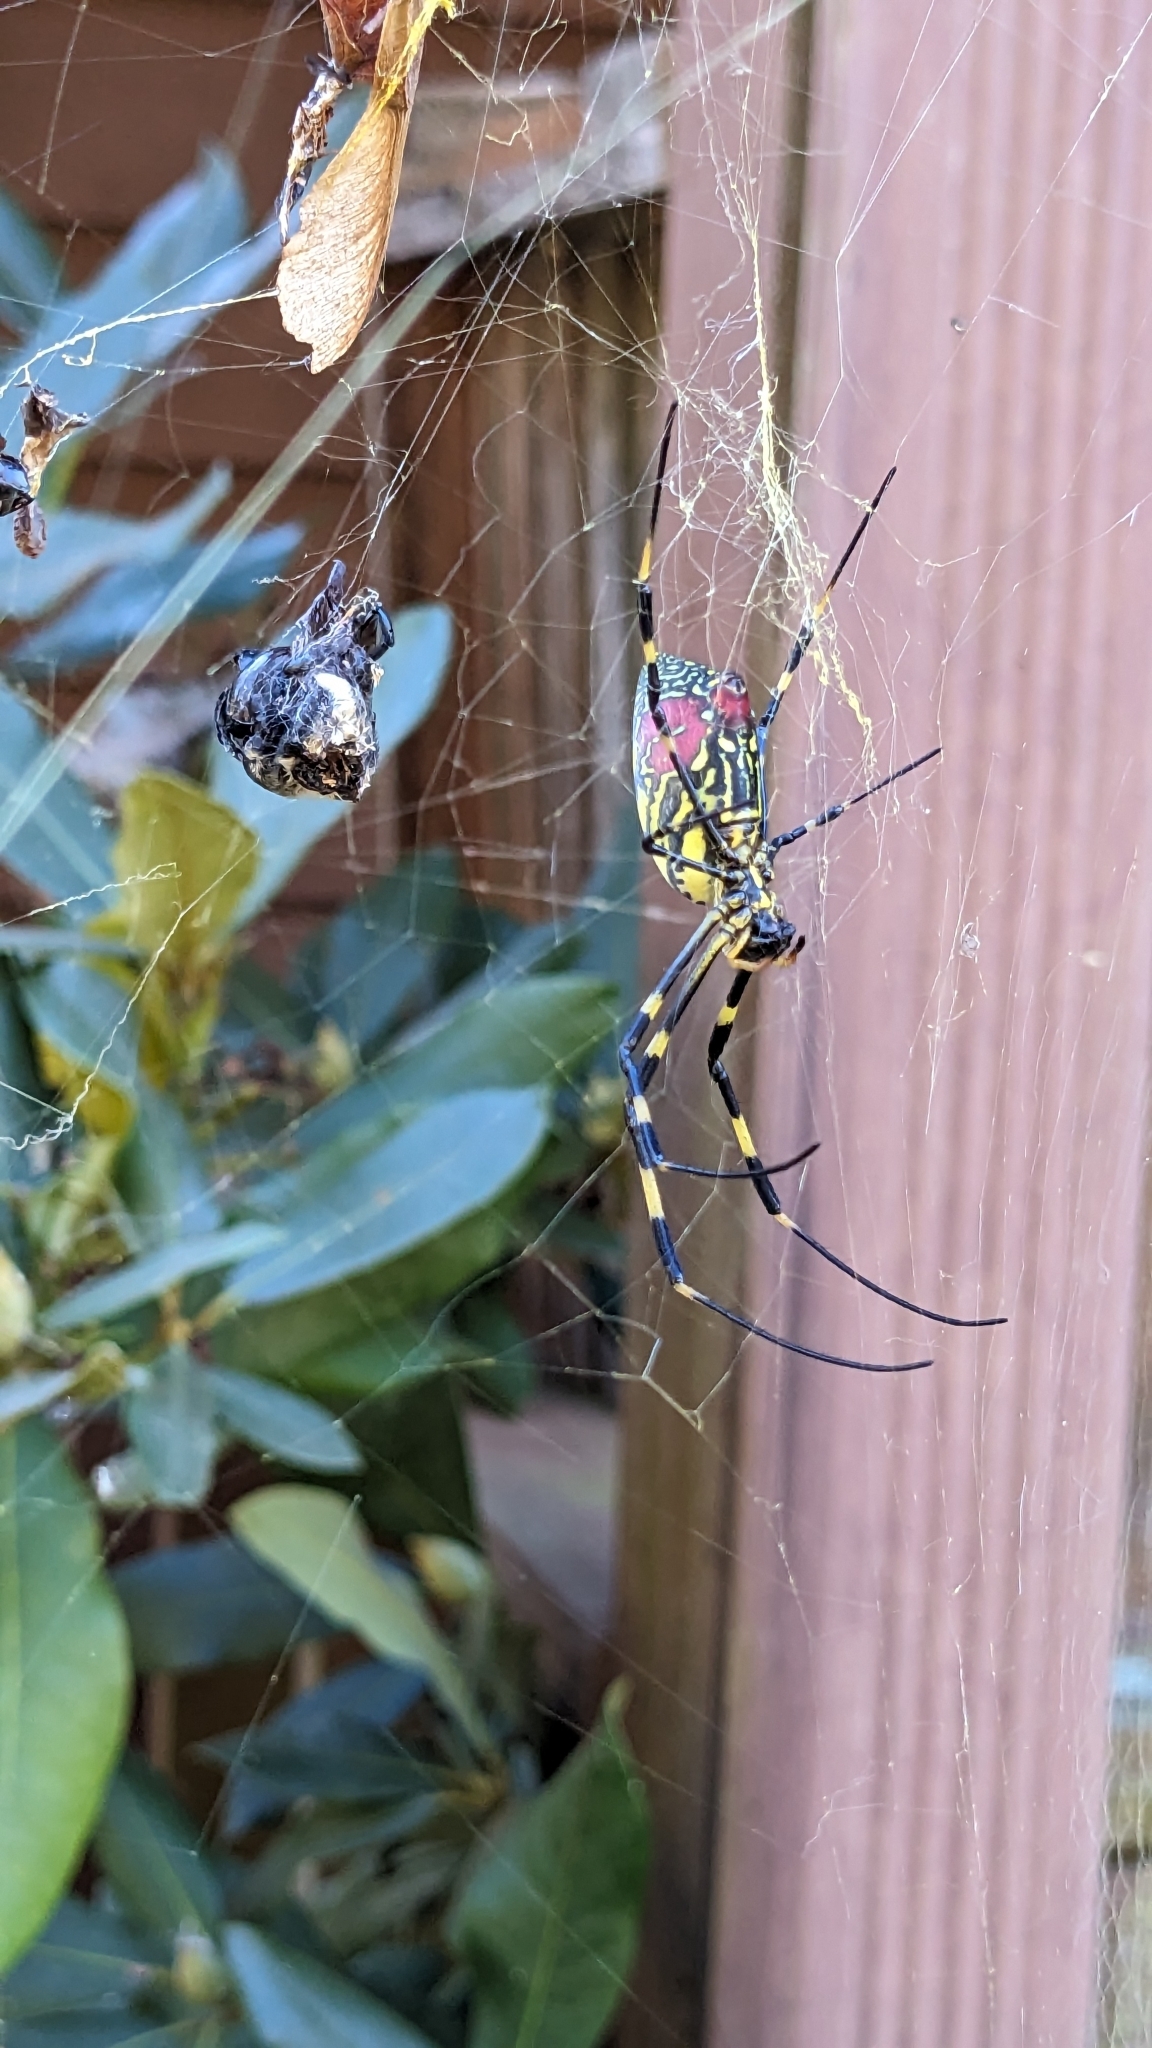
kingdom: Animalia
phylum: Arthropoda
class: Arachnida
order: Araneae
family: Araneidae
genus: Trichonephila
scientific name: Trichonephila clavata
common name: Jorō spider
